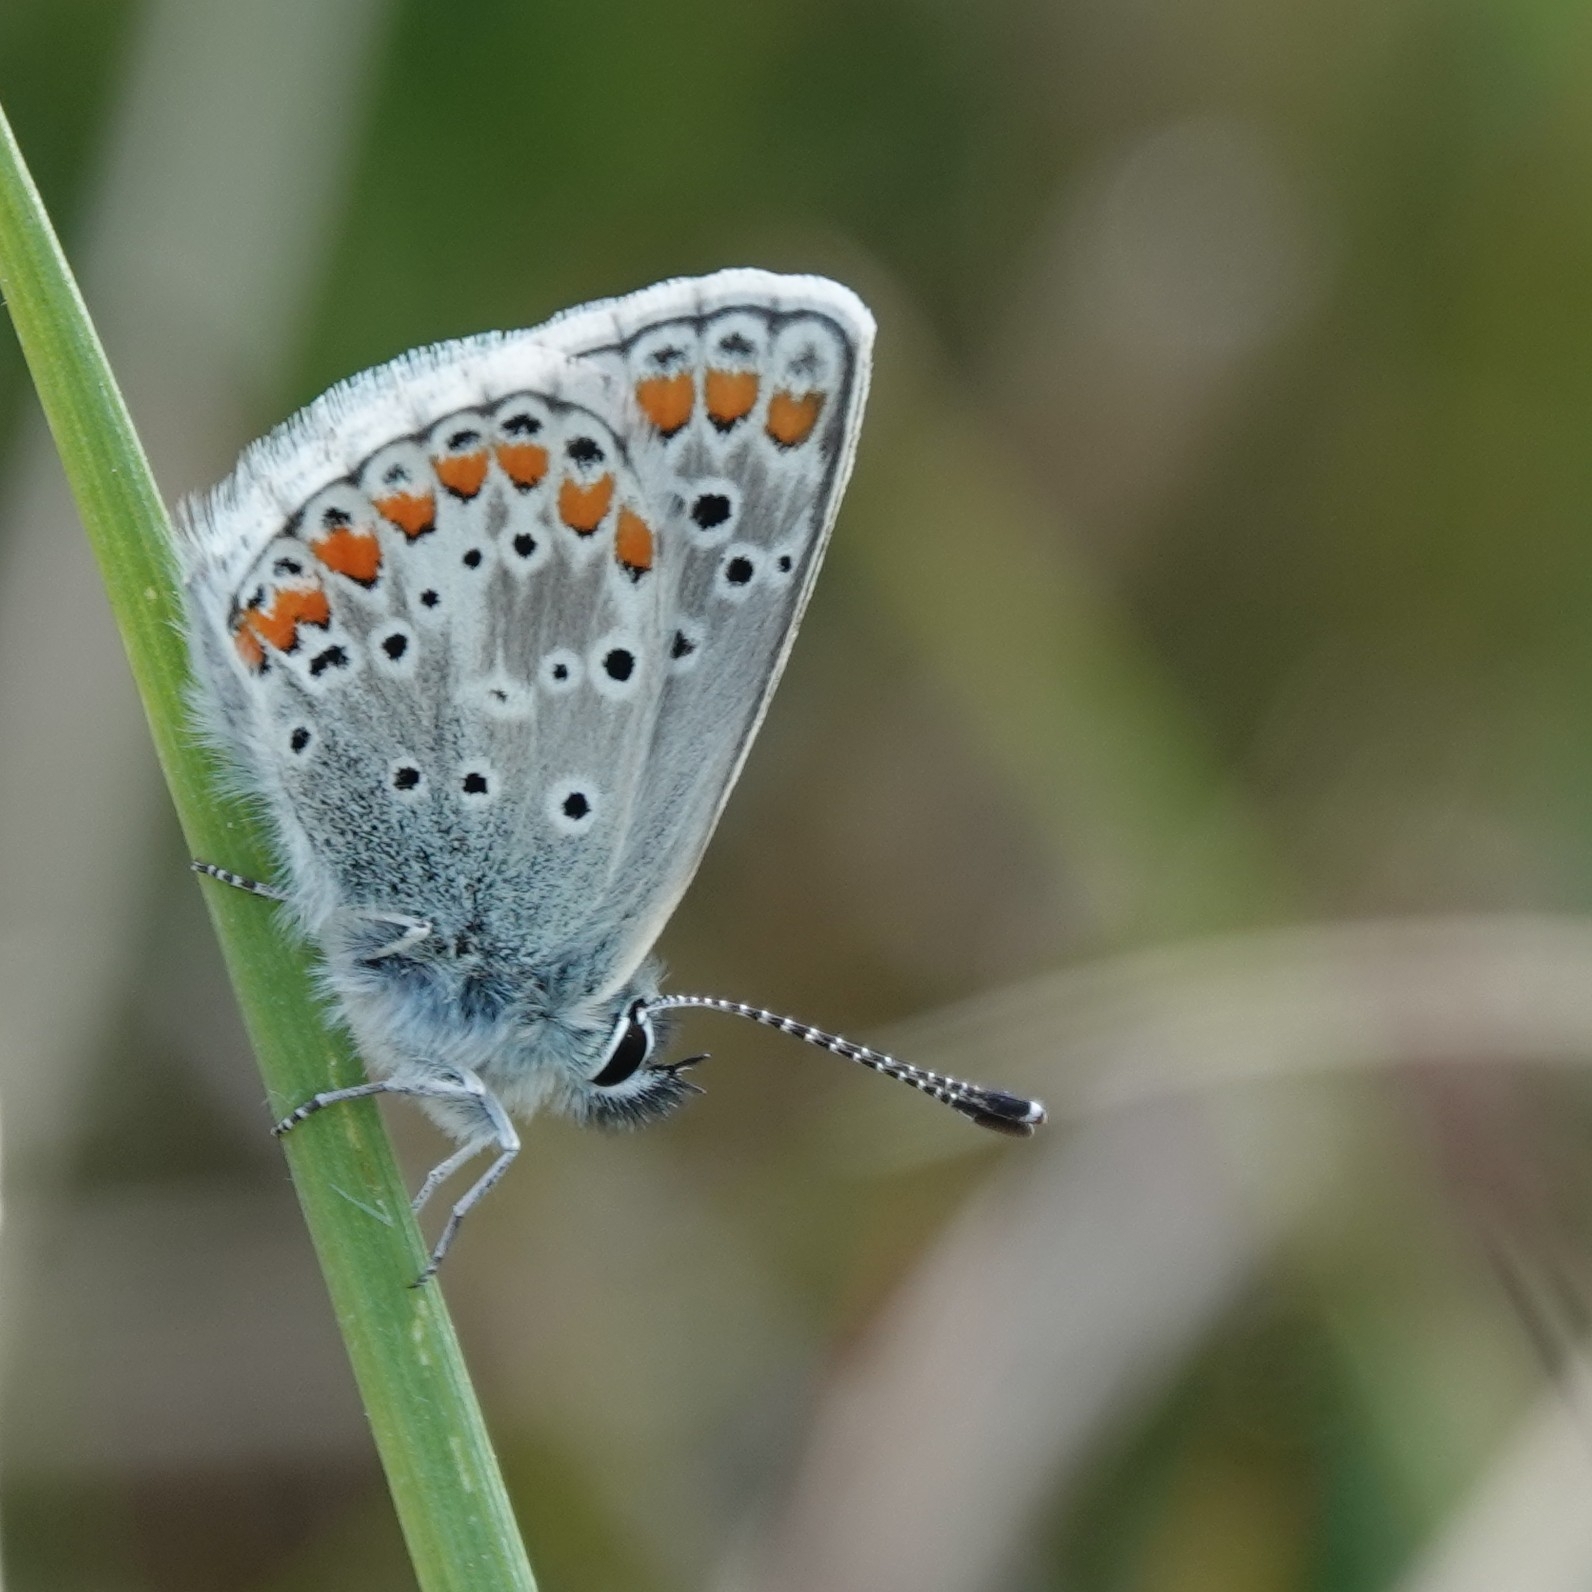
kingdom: Animalia
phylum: Arthropoda
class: Insecta
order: Lepidoptera
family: Lycaenidae
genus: Aricia
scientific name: Aricia agestis
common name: Brown argus
